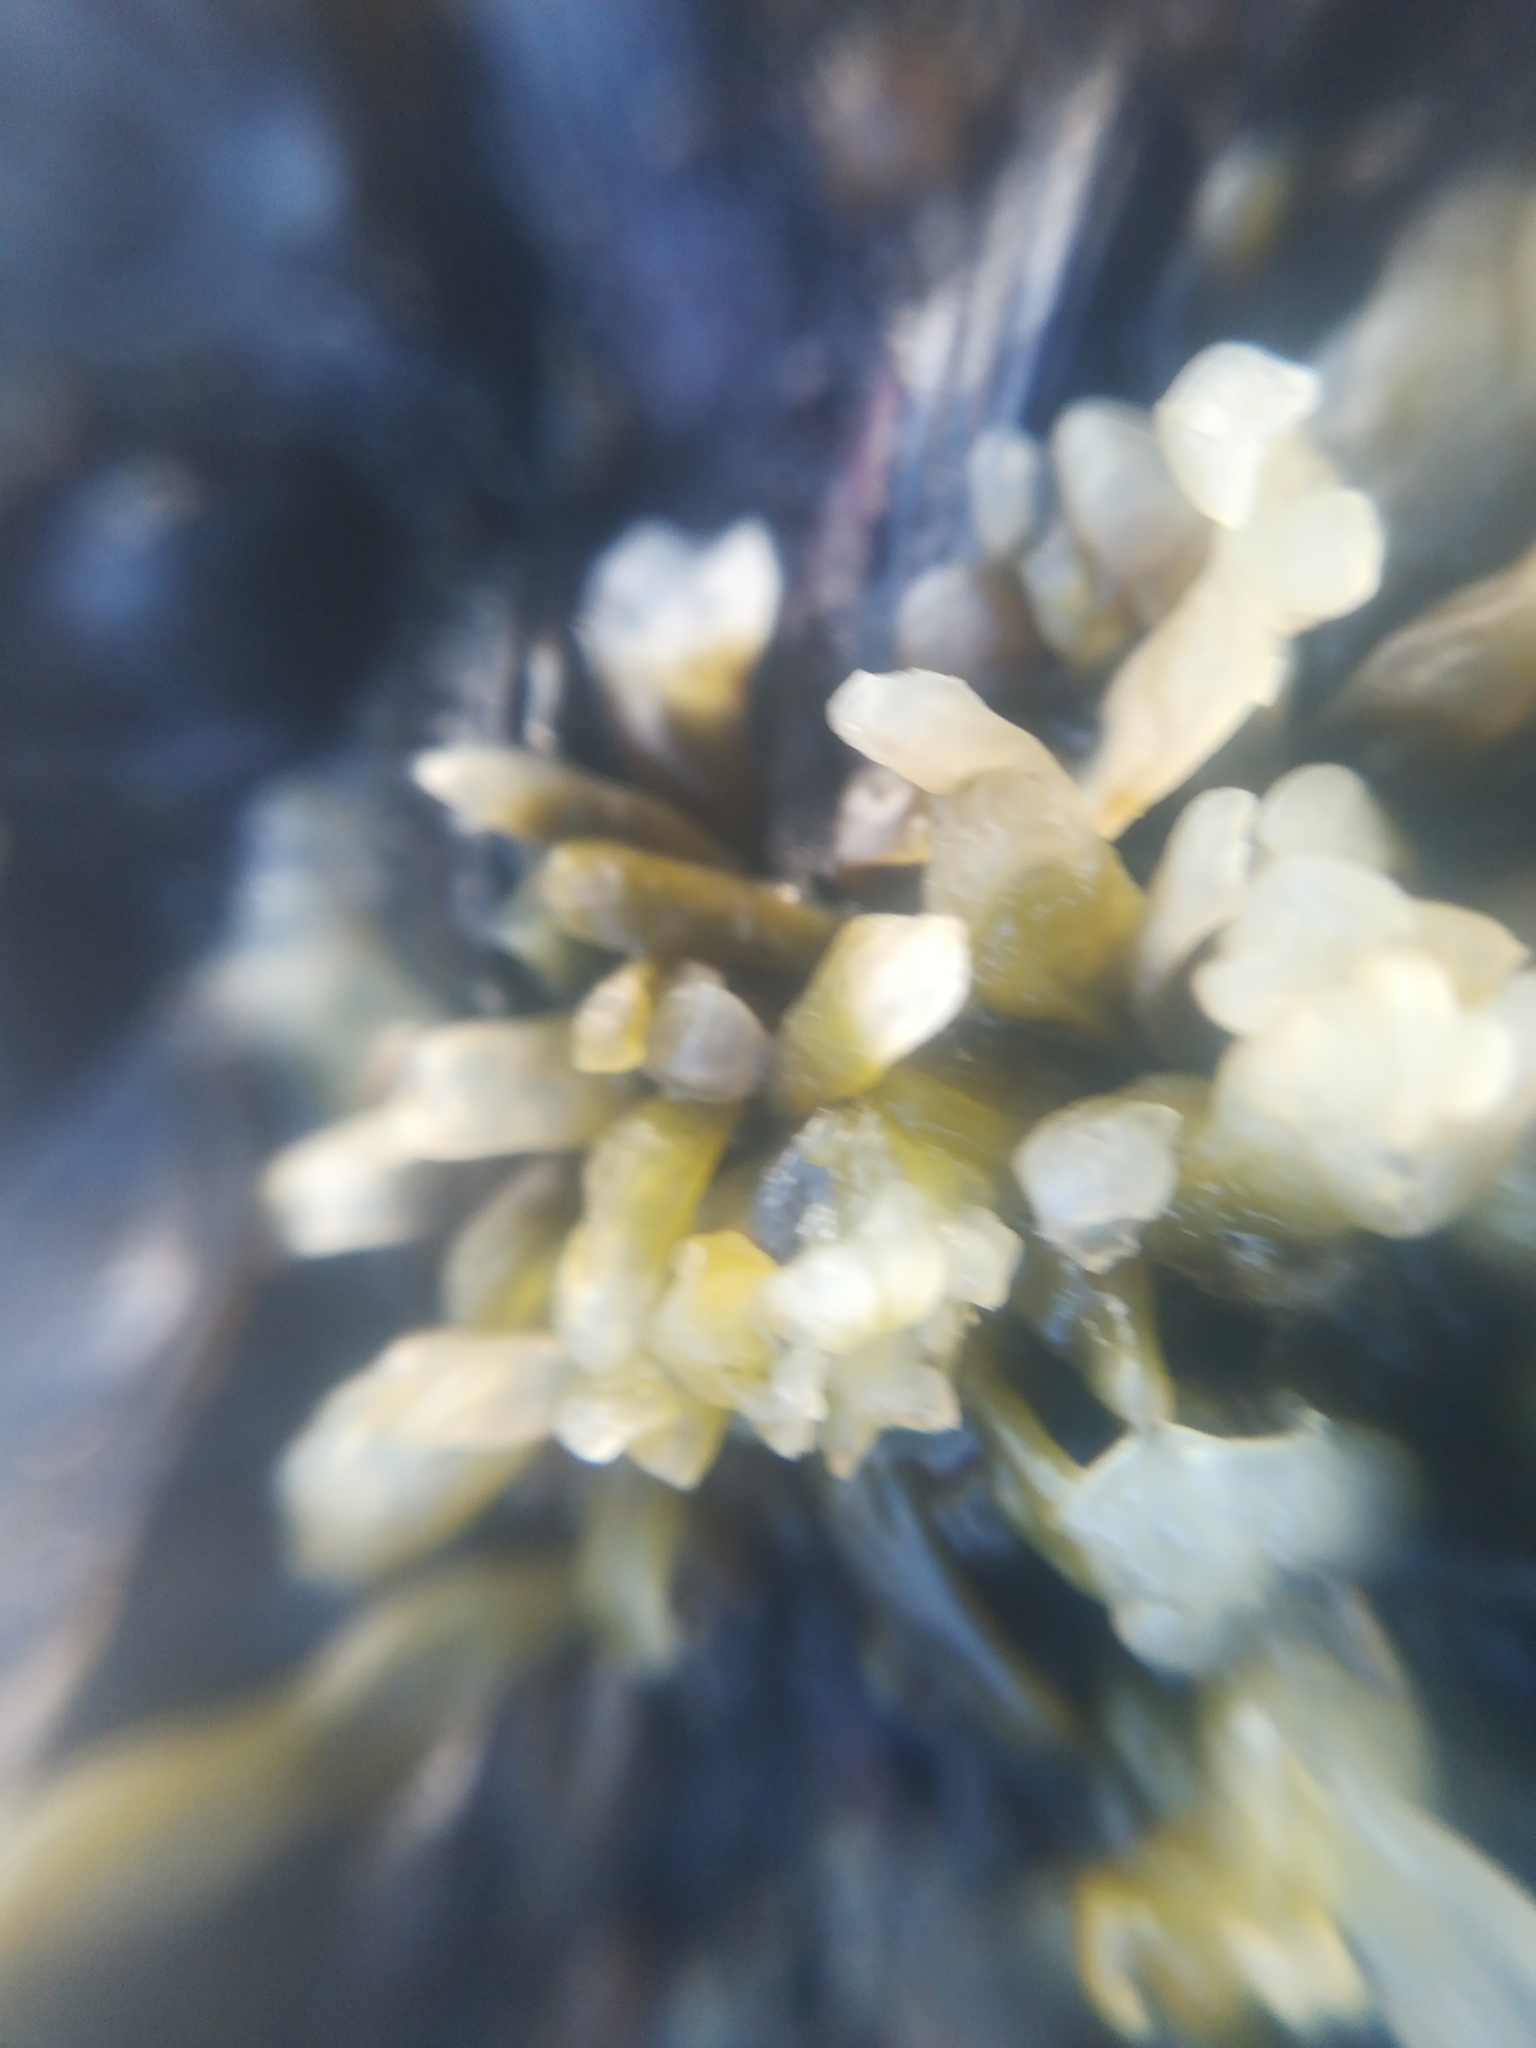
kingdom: Plantae
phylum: Rhodophyta
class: Florideophyceae
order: Nemaliales
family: Scinaiaceae
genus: Nothogenia
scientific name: Nothogenia fastigiata
